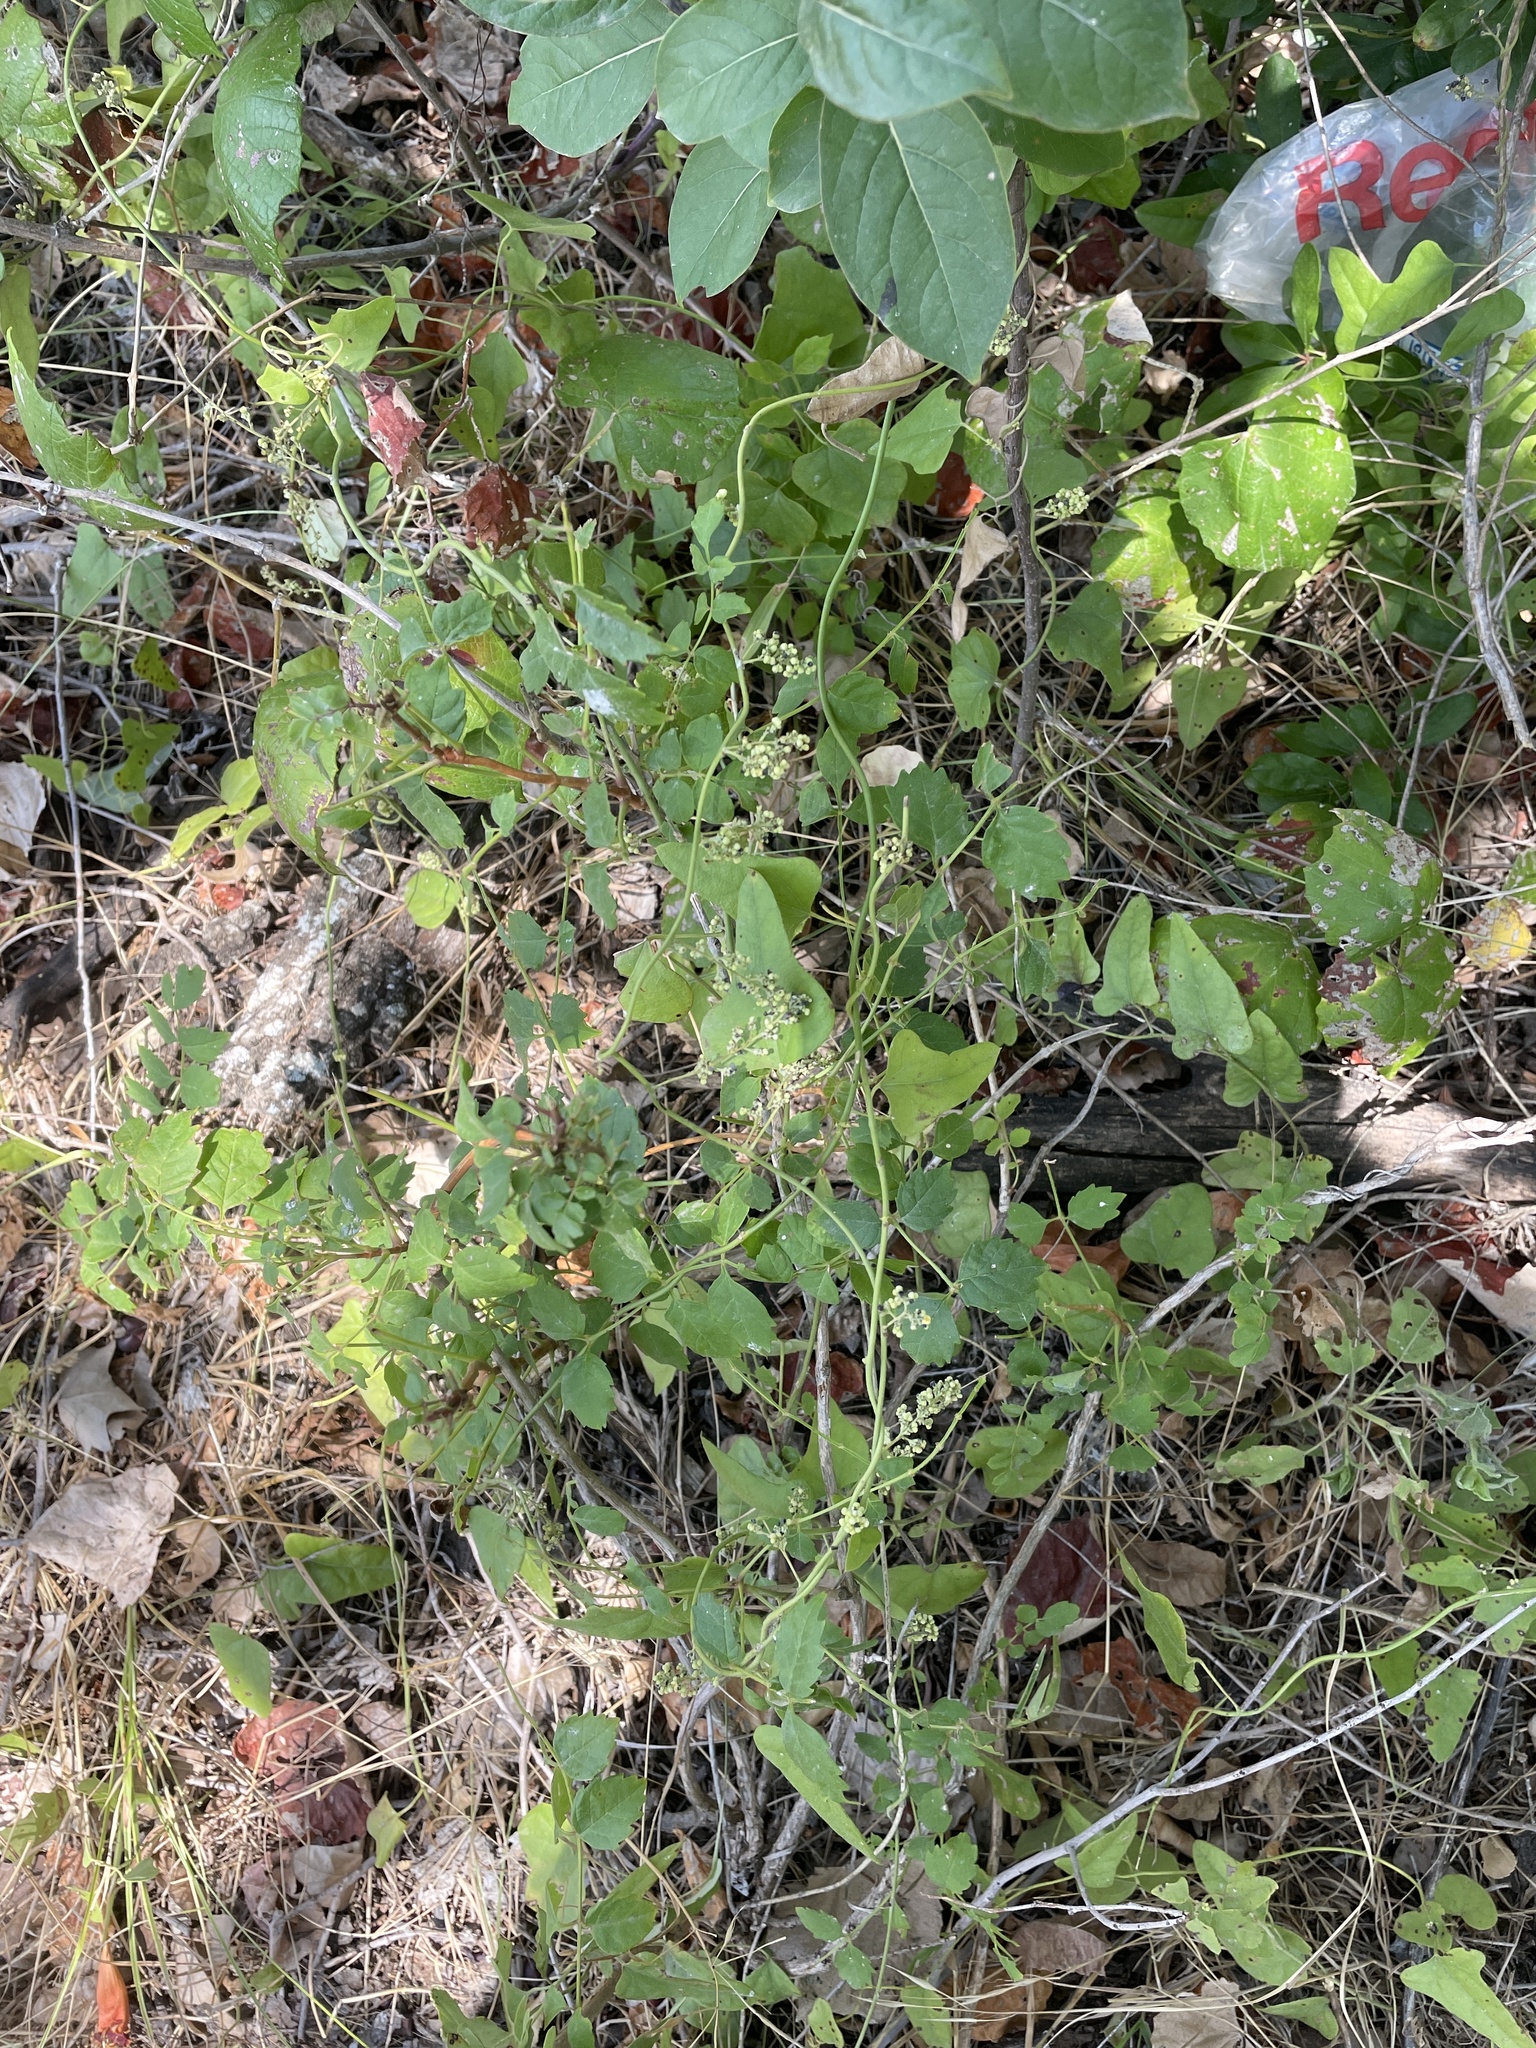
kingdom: Plantae
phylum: Tracheophyta
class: Magnoliopsida
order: Ranunculales
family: Menispermaceae
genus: Cocculus
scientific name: Cocculus carolinus
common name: Carolina moonseed
